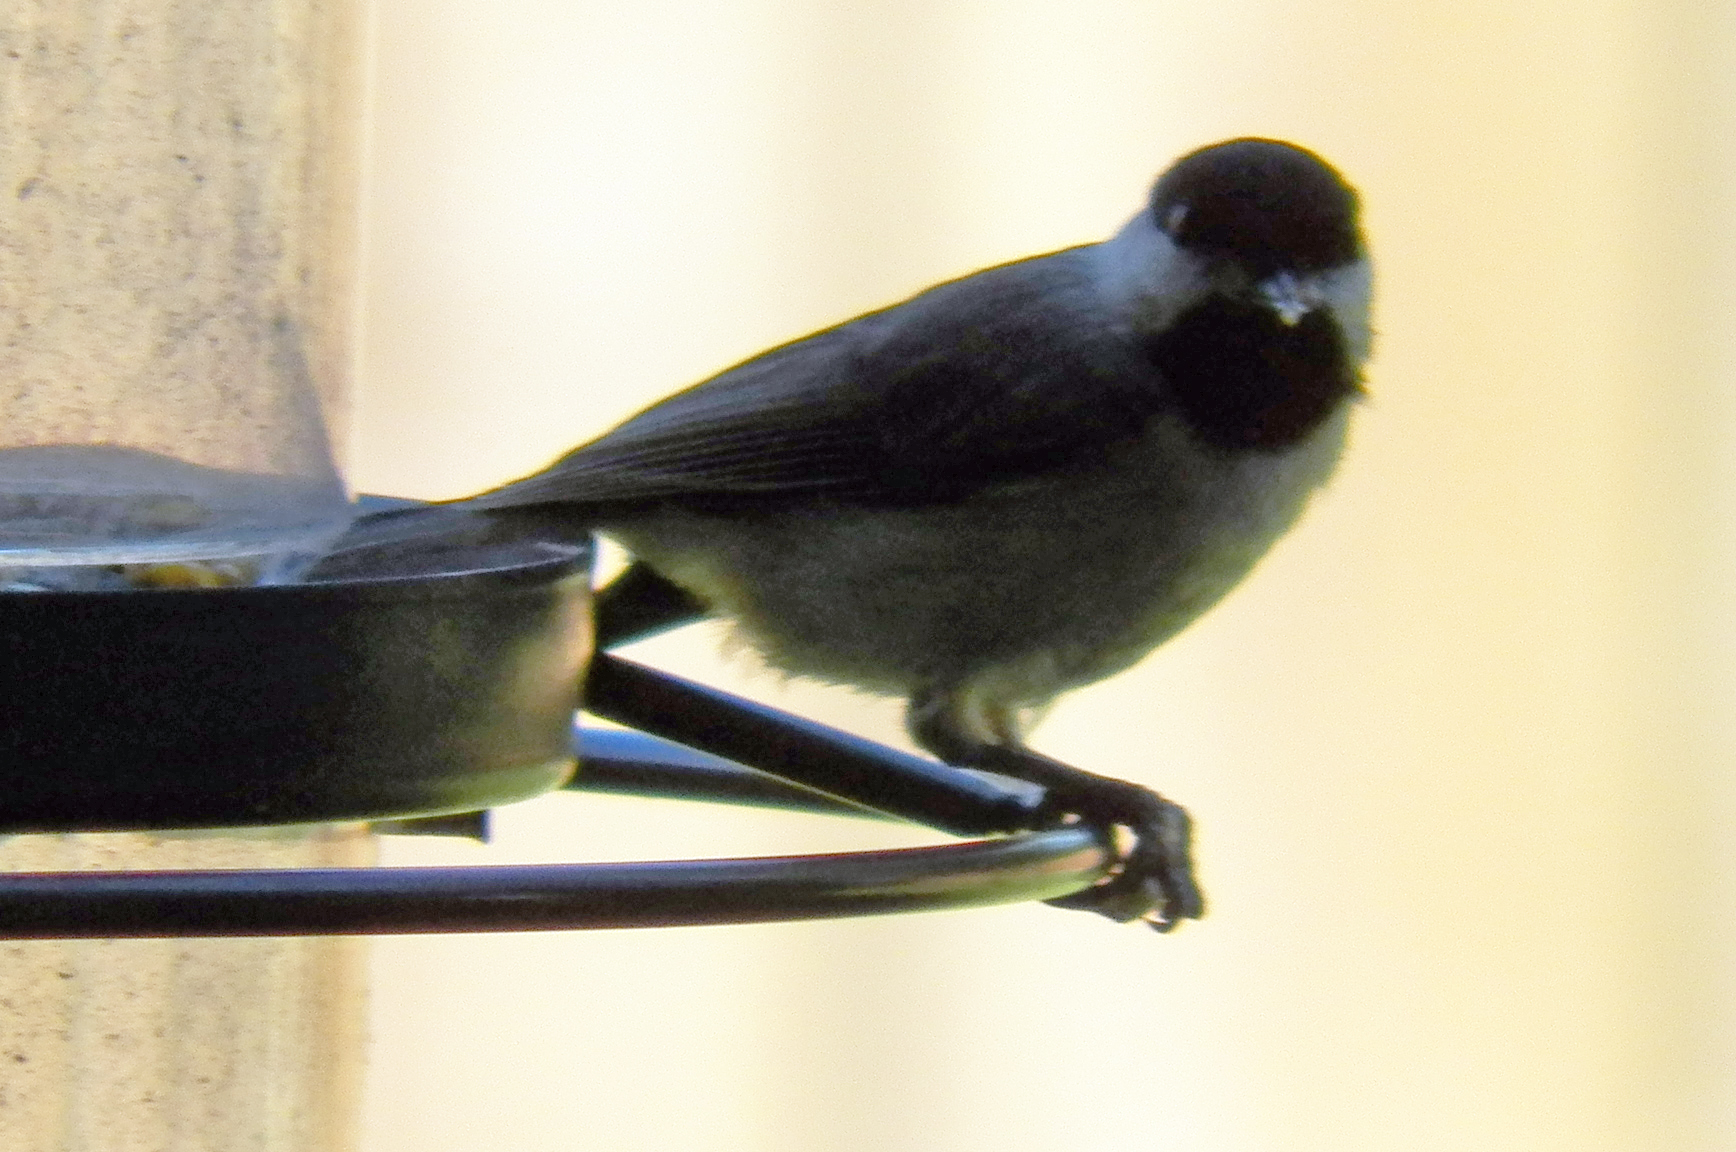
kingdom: Animalia
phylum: Chordata
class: Aves
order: Passeriformes
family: Paridae
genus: Poecile
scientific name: Poecile carolinensis
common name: Carolina chickadee
